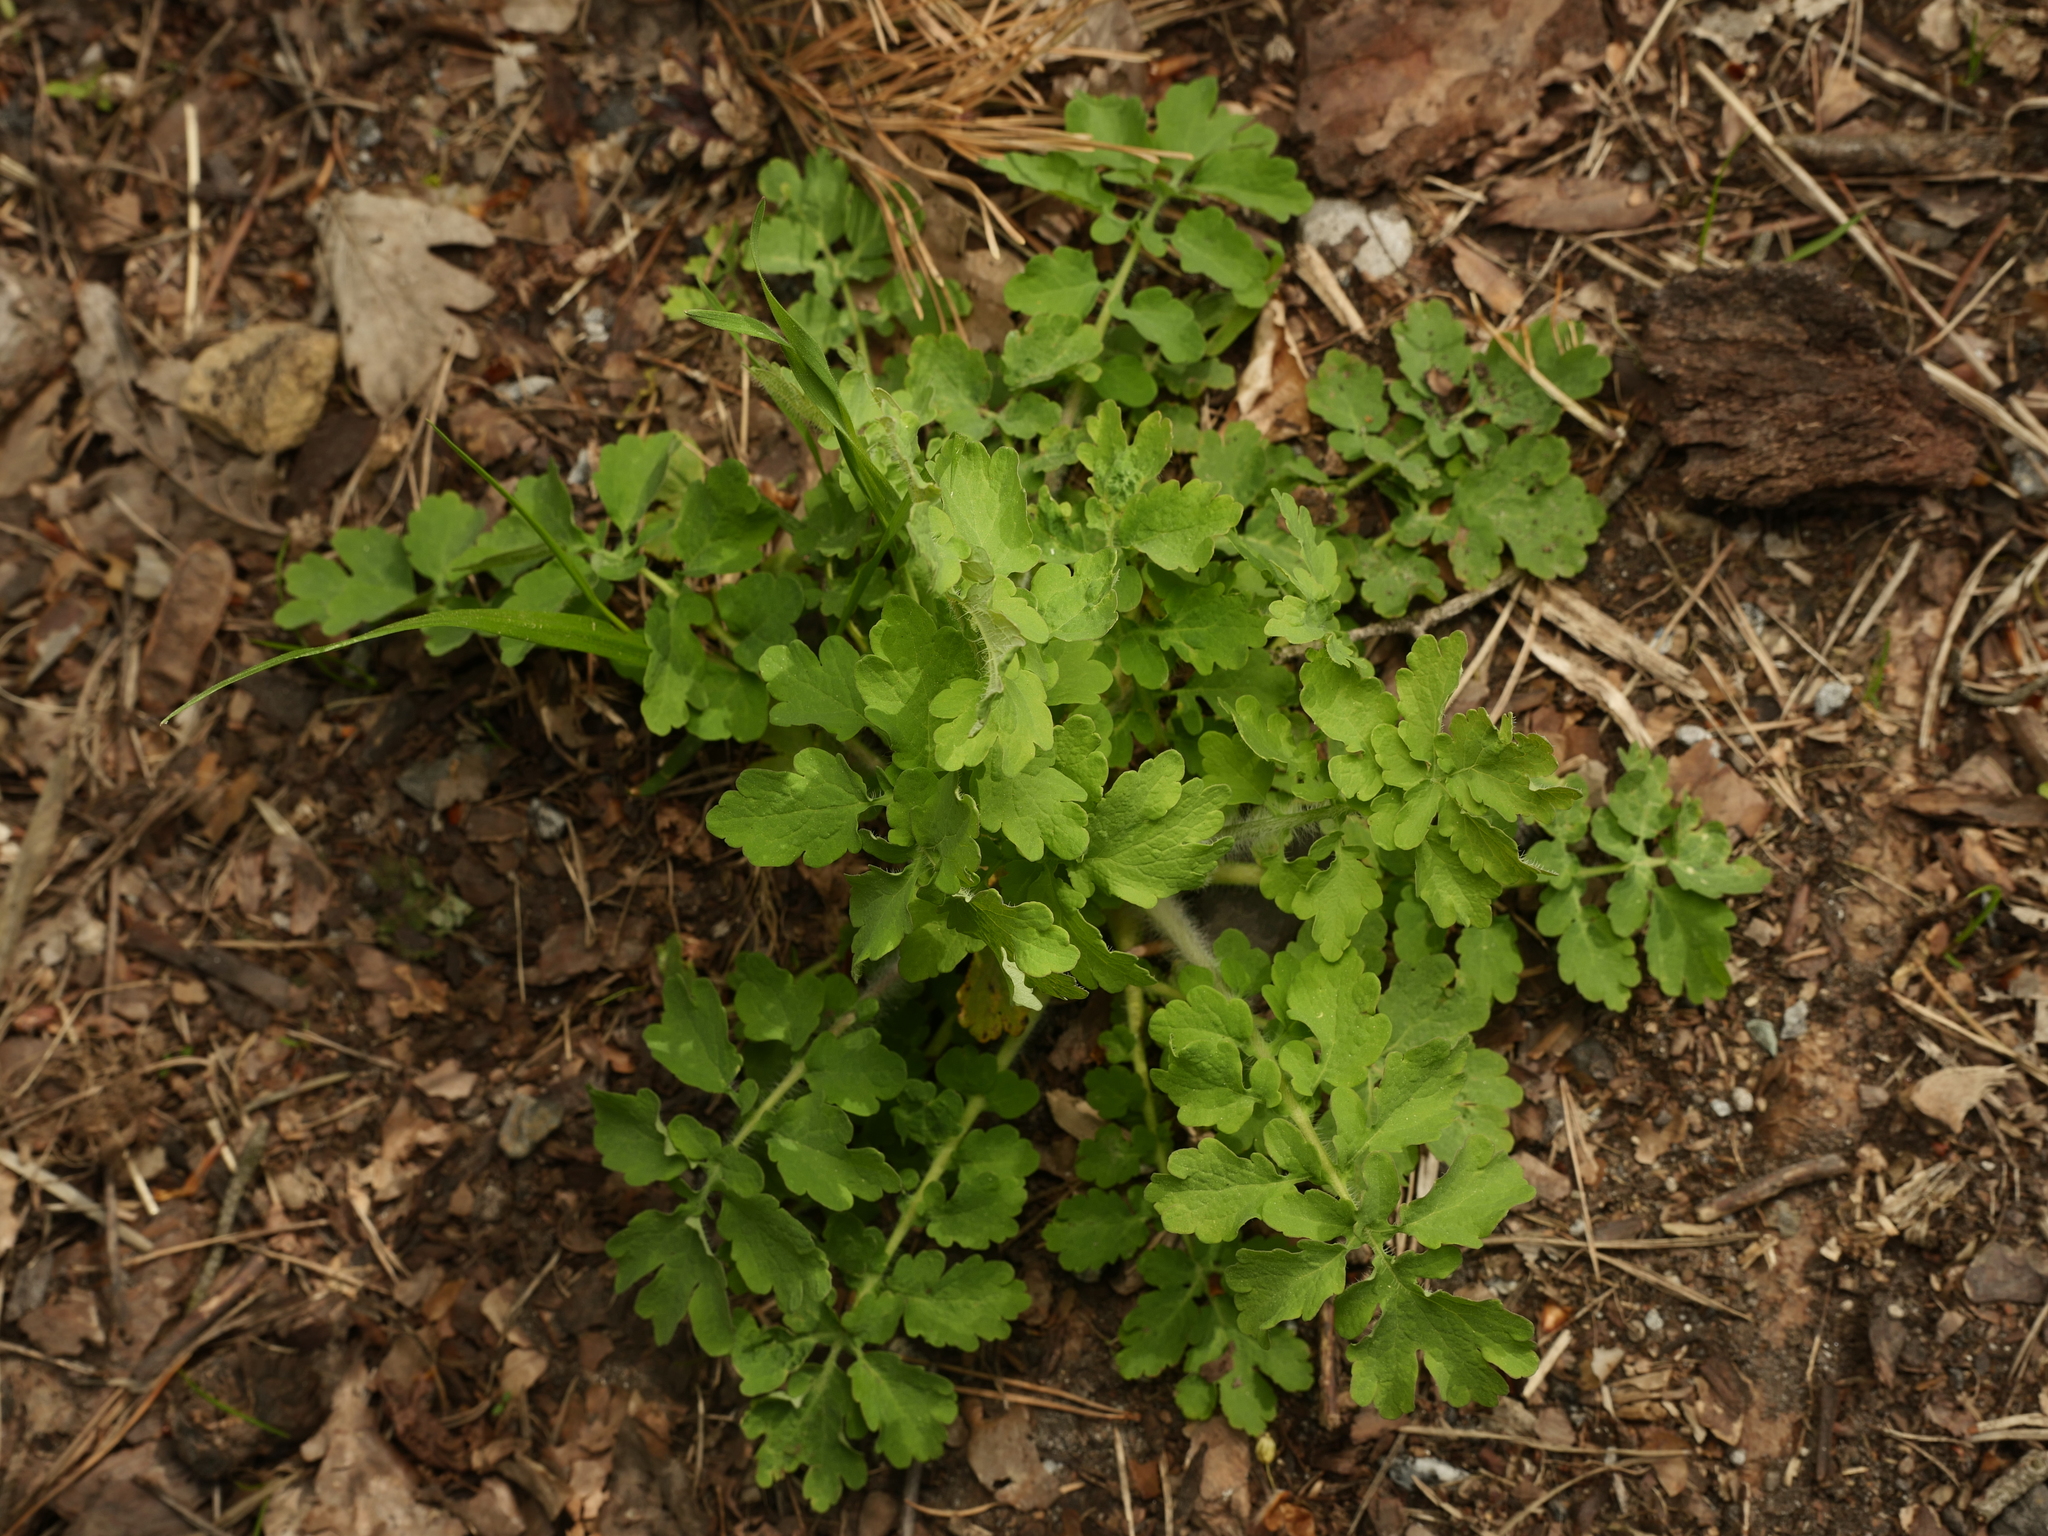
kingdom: Plantae
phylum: Tracheophyta
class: Magnoliopsida
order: Ranunculales
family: Papaveraceae
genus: Chelidonium
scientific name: Chelidonium majus
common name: Greater celandine
